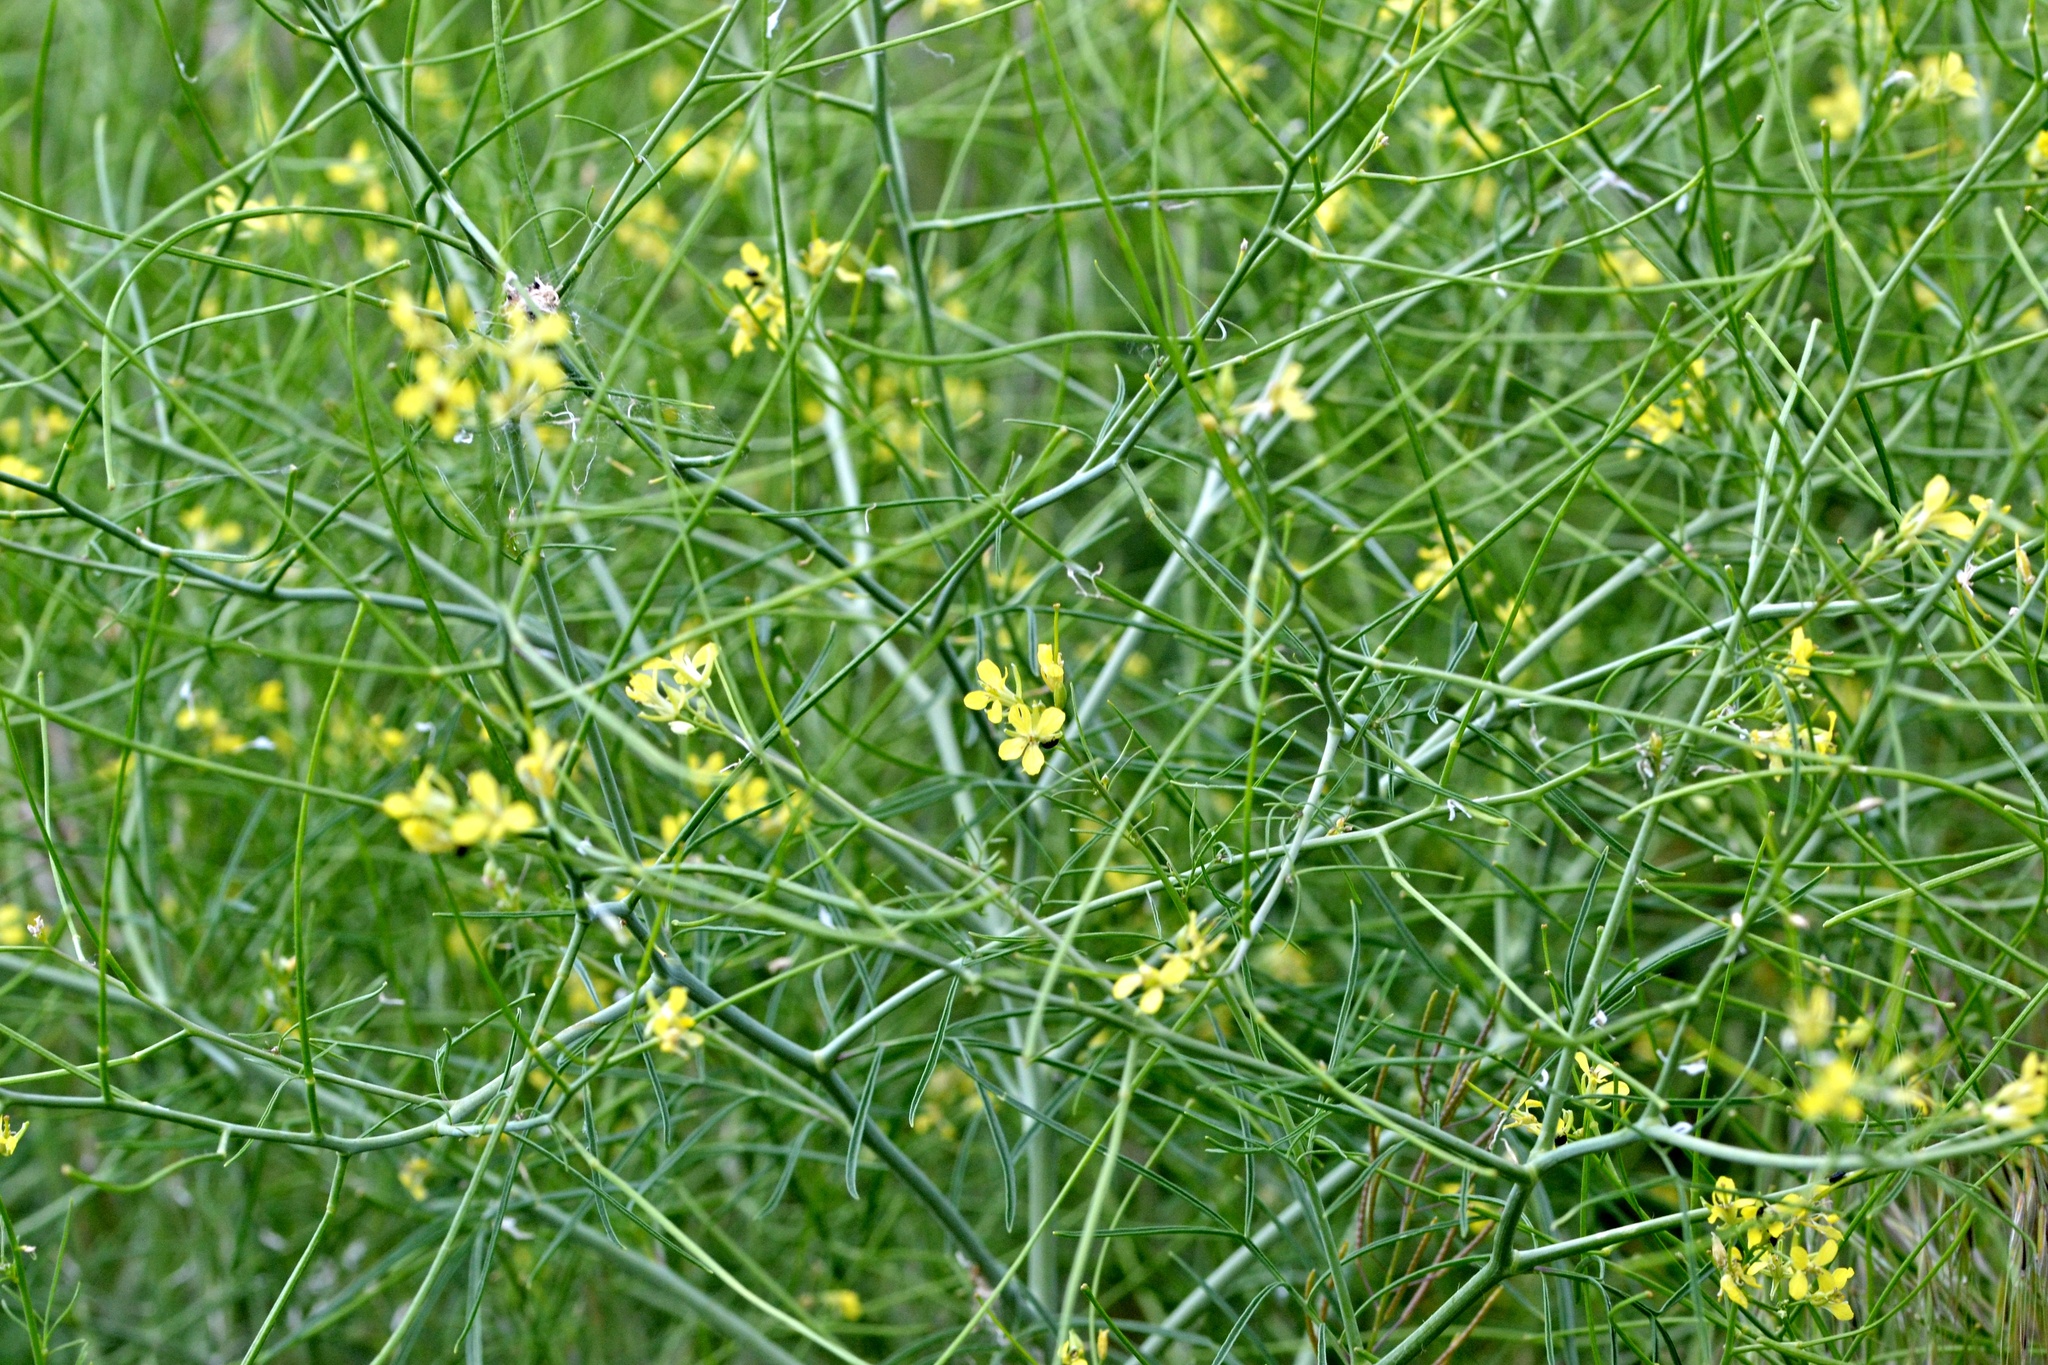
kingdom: Plantae
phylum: Tracheophyta
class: Magnoliopsida
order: Brassicales
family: Brassicaceae
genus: Sisymbrium
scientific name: Sisymbrium altissimum
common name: Tall rocket
